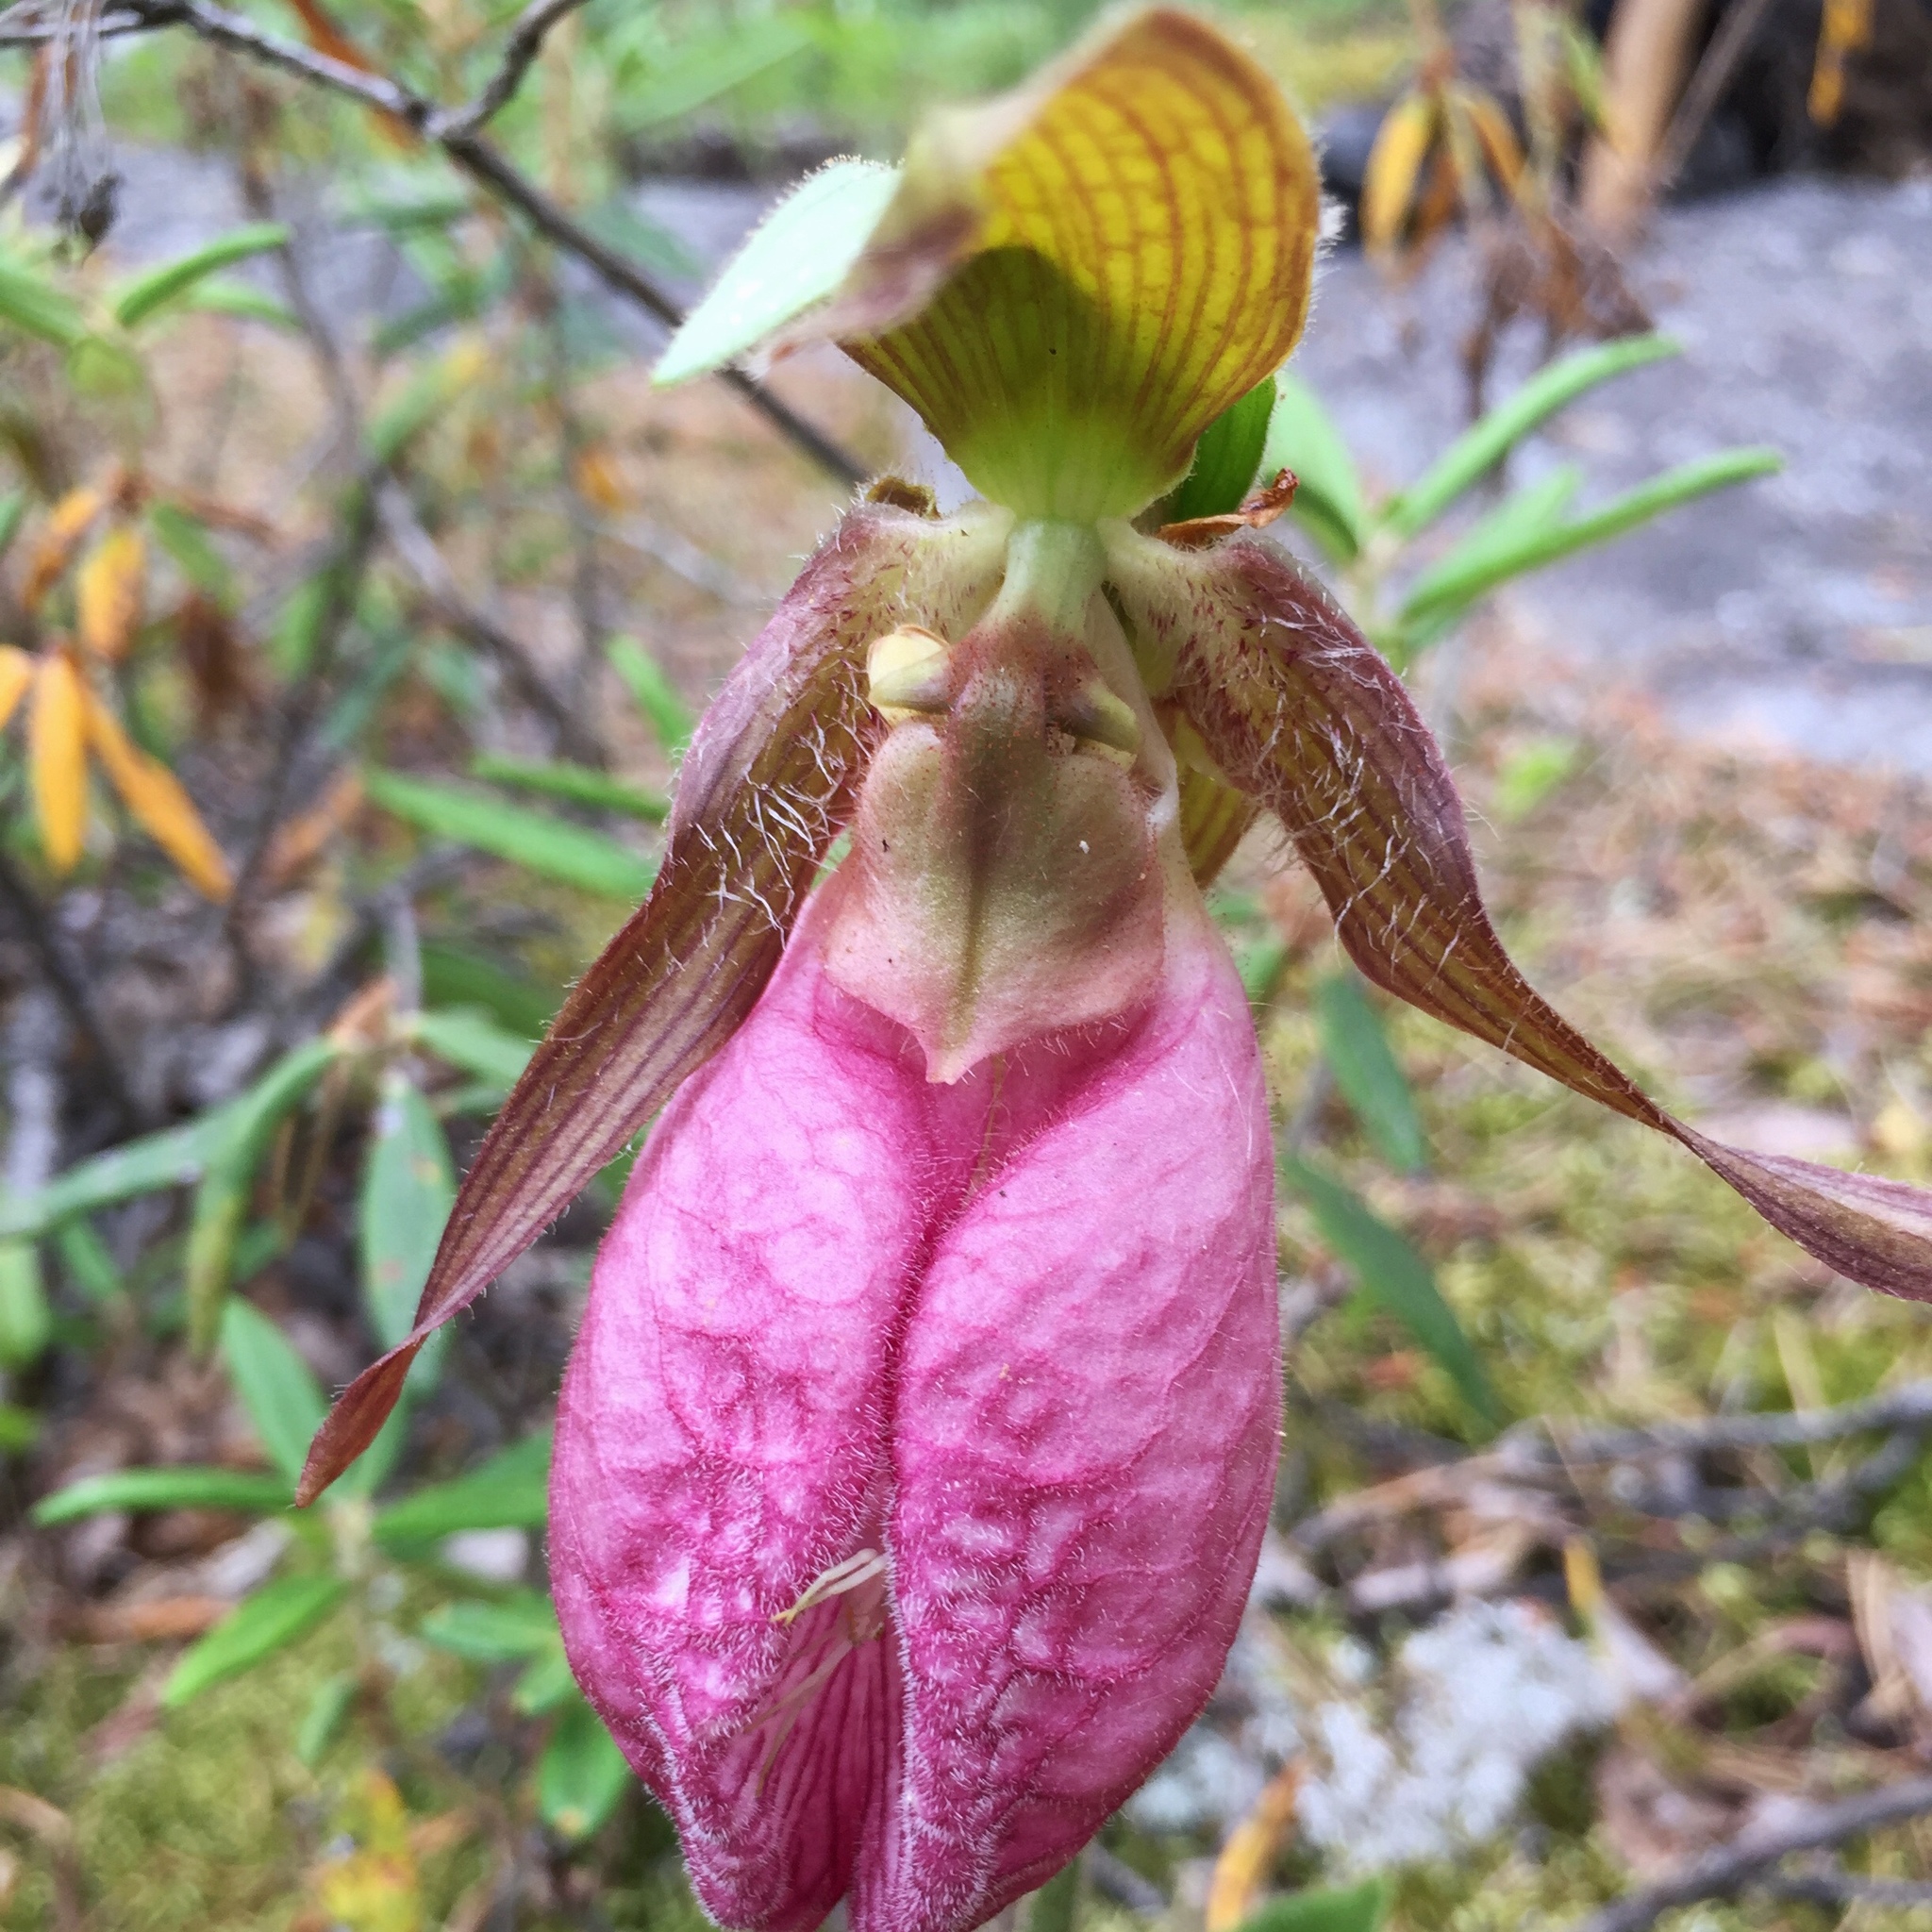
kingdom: Plantae
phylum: Tracheophyta
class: Liliopsida
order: Asparagales
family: Orchidaceae
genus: Cypripedium
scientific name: Cypripedium acaule
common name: Pink lady's-slipper
